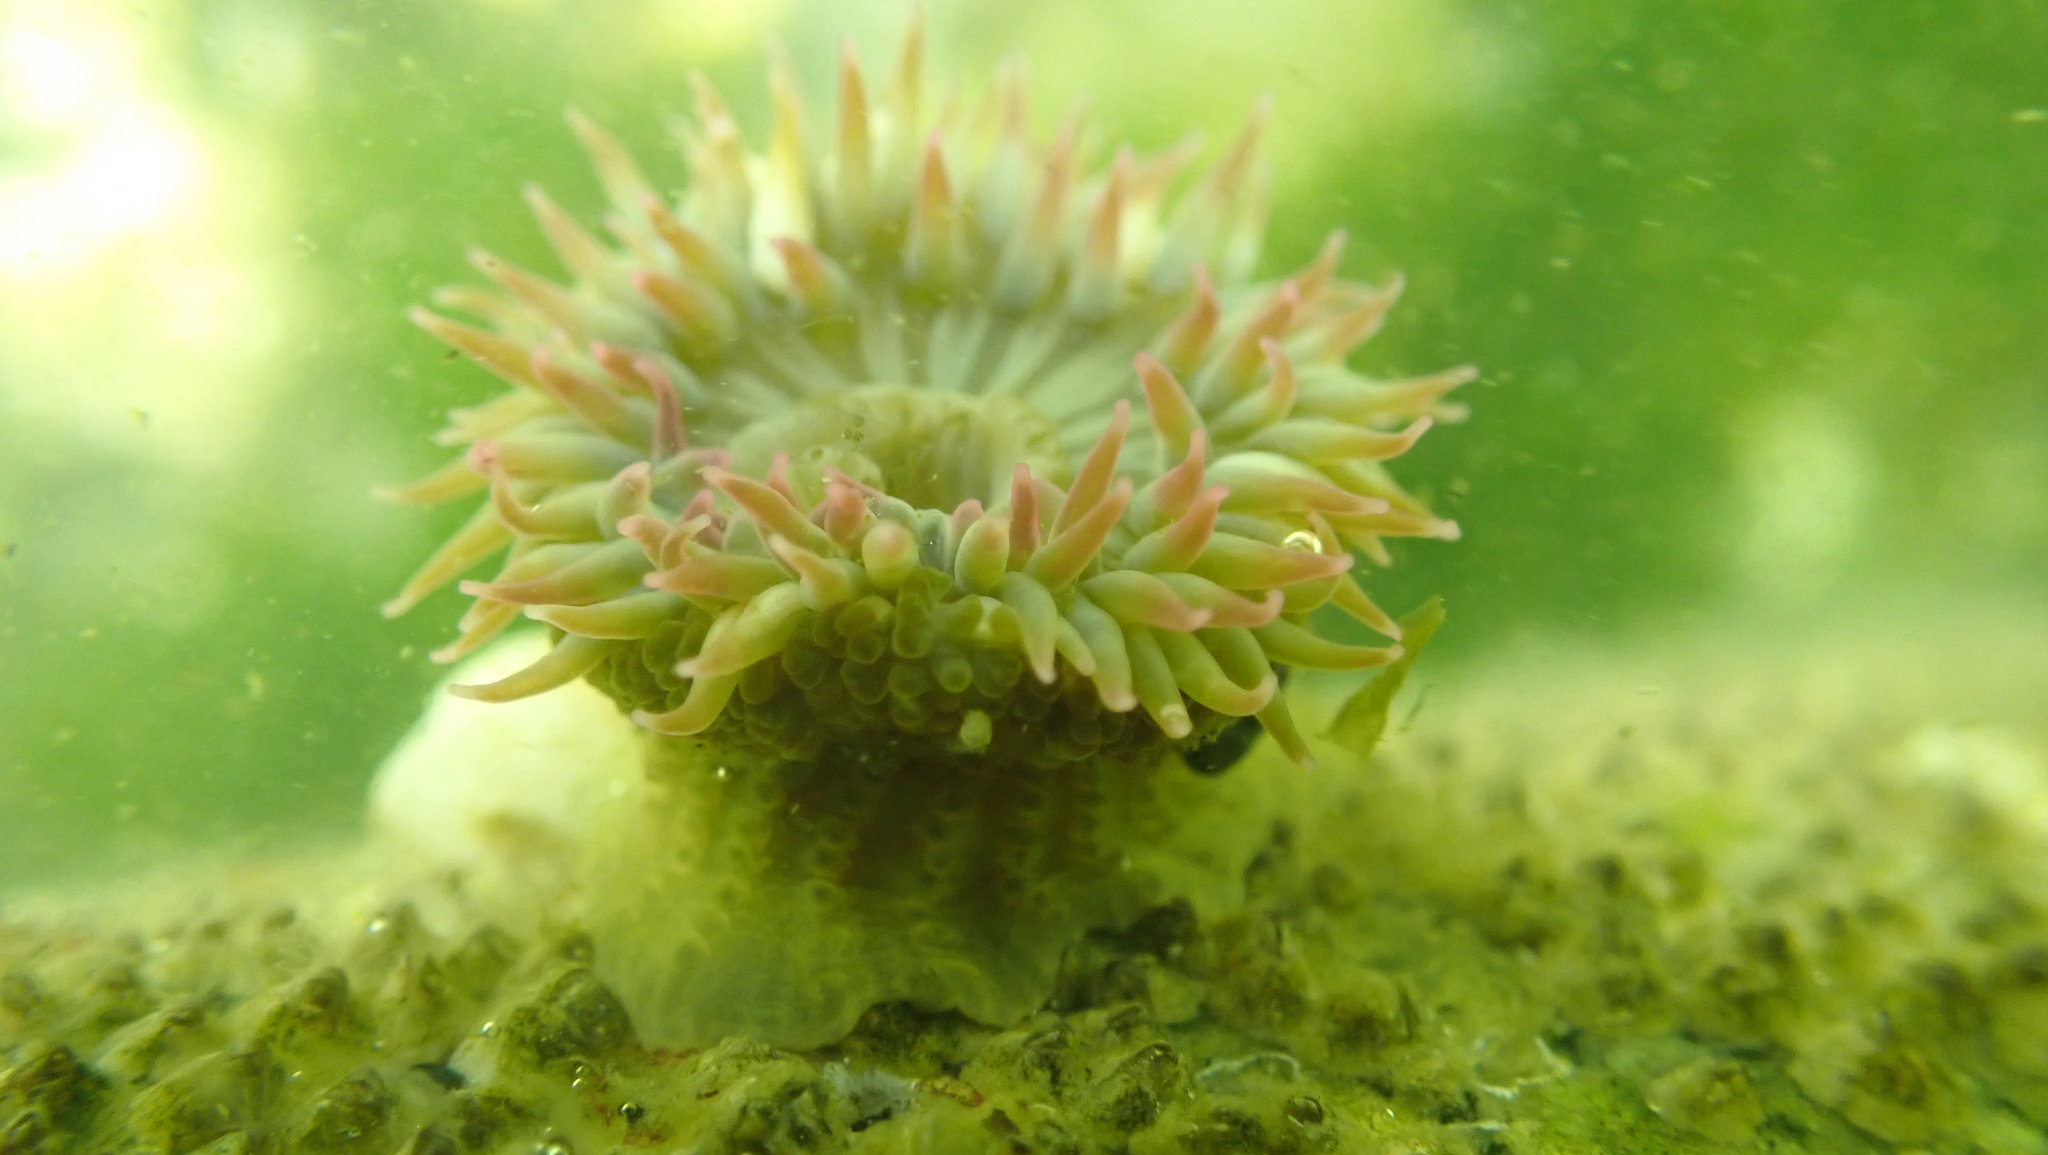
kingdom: Animalia
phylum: Cnidaria
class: Anthozoa
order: Actiniaria
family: Actiniidae
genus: Anthopleura
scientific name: Anthopleura elegantissima
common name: Clonal anemone
